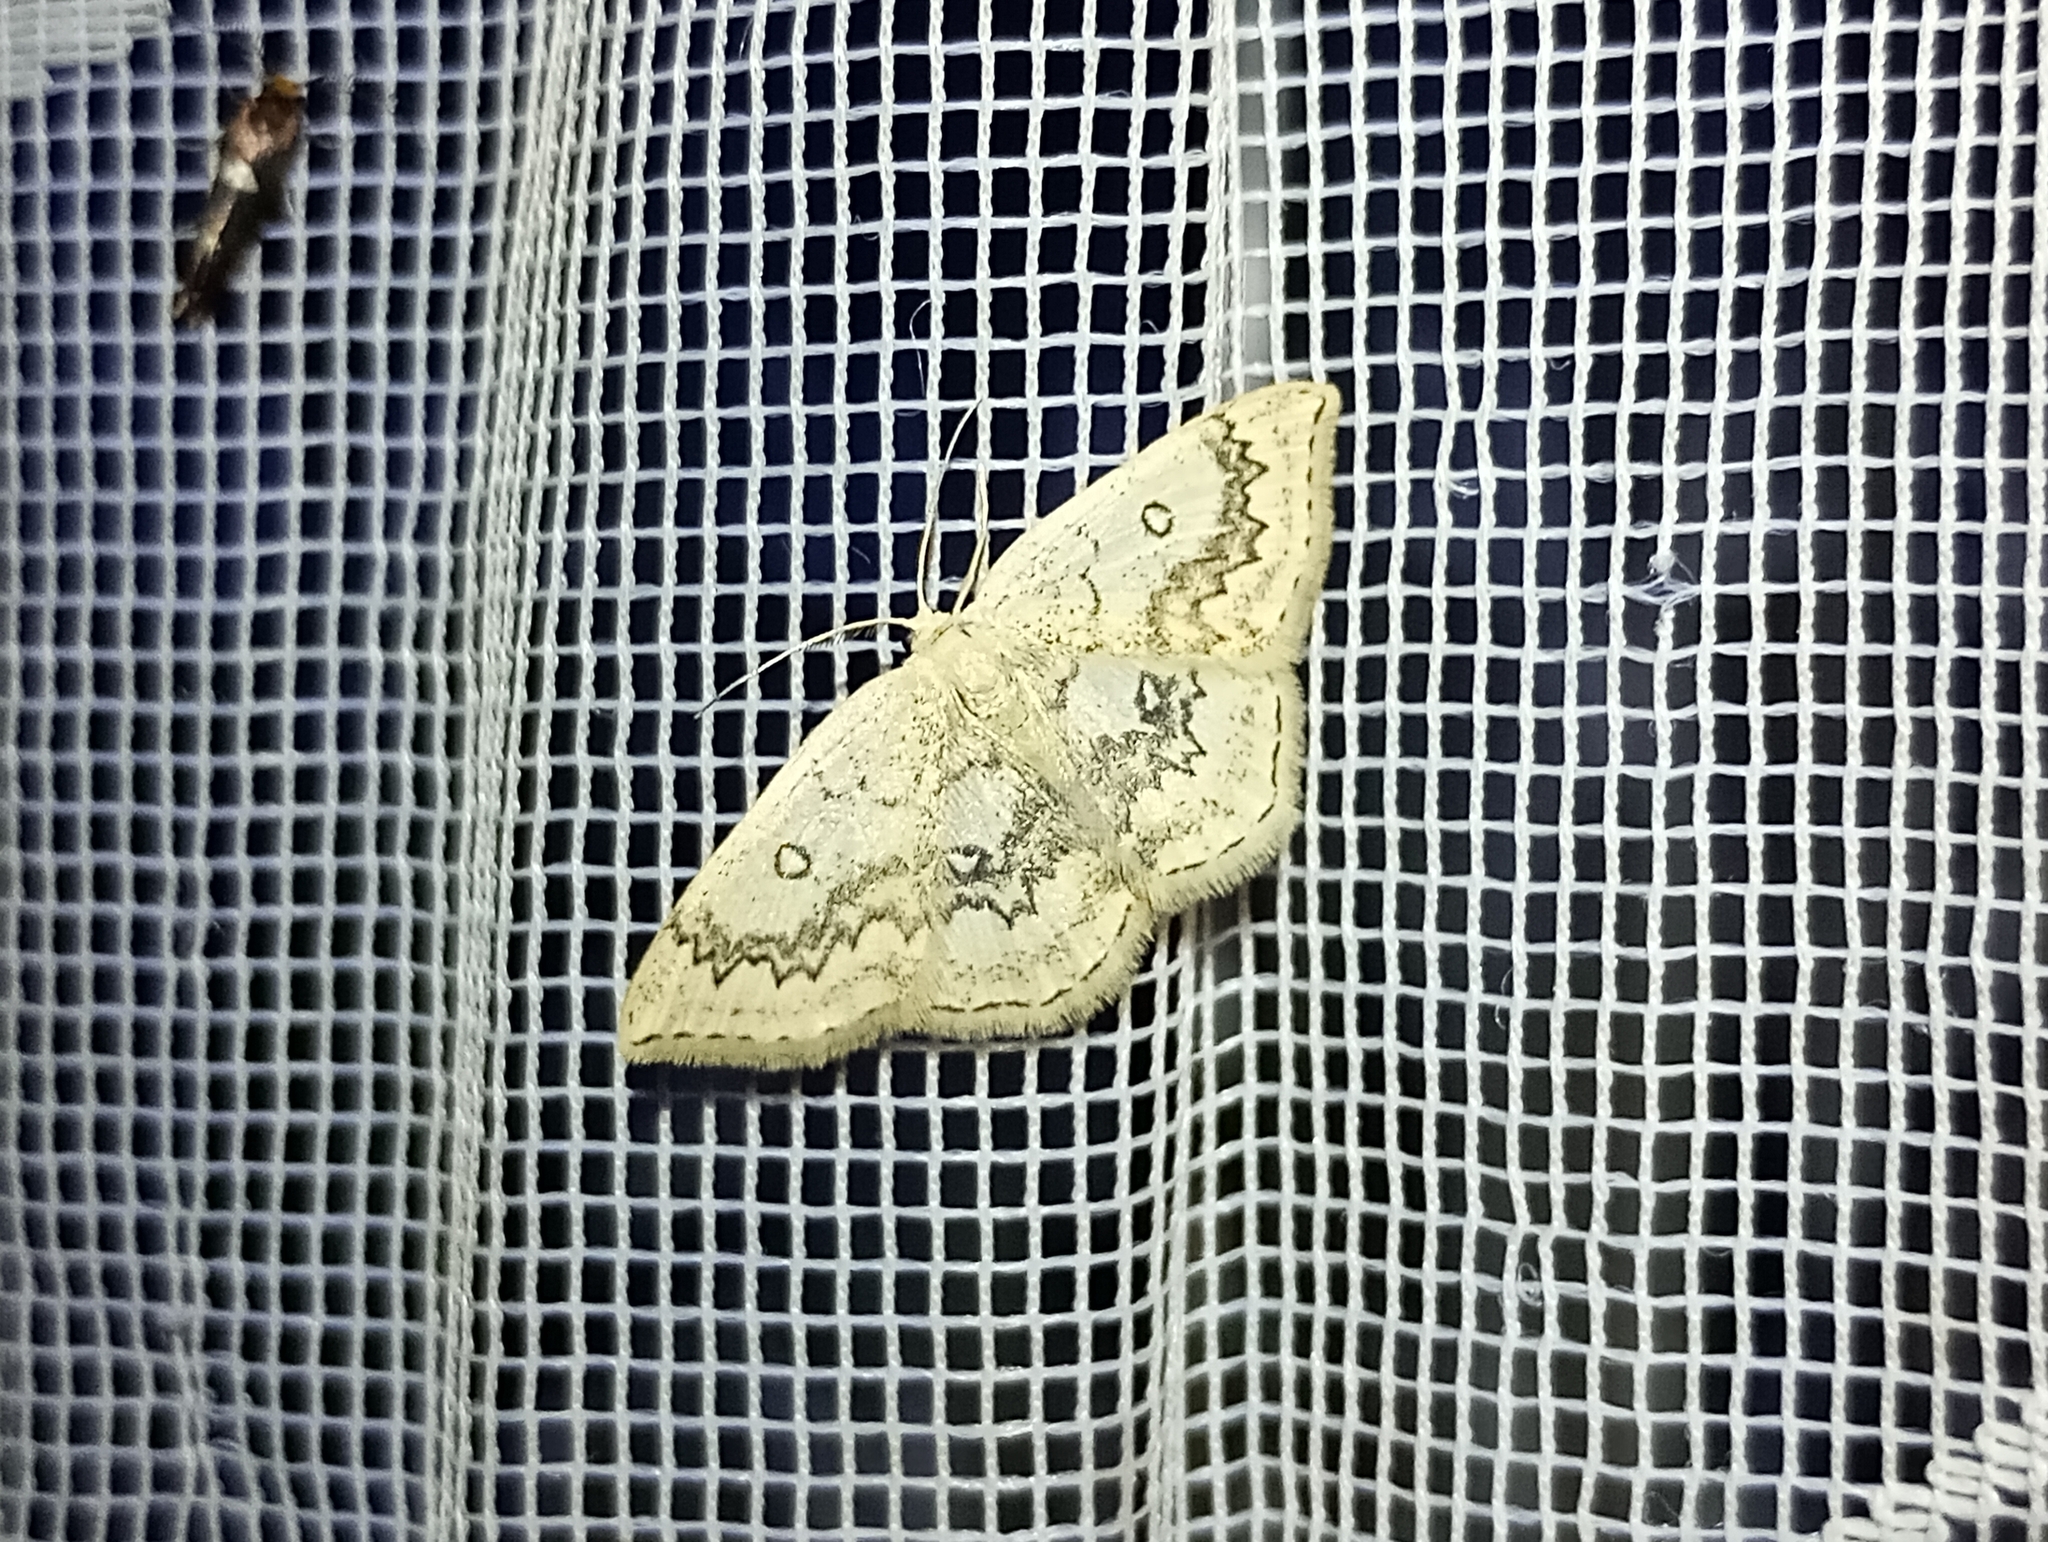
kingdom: Animalia
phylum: Arthropoda
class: Insecta
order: Lepidoptera
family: Geometridae
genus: Cyclophora
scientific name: Cyclophora annularia
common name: Mocha
